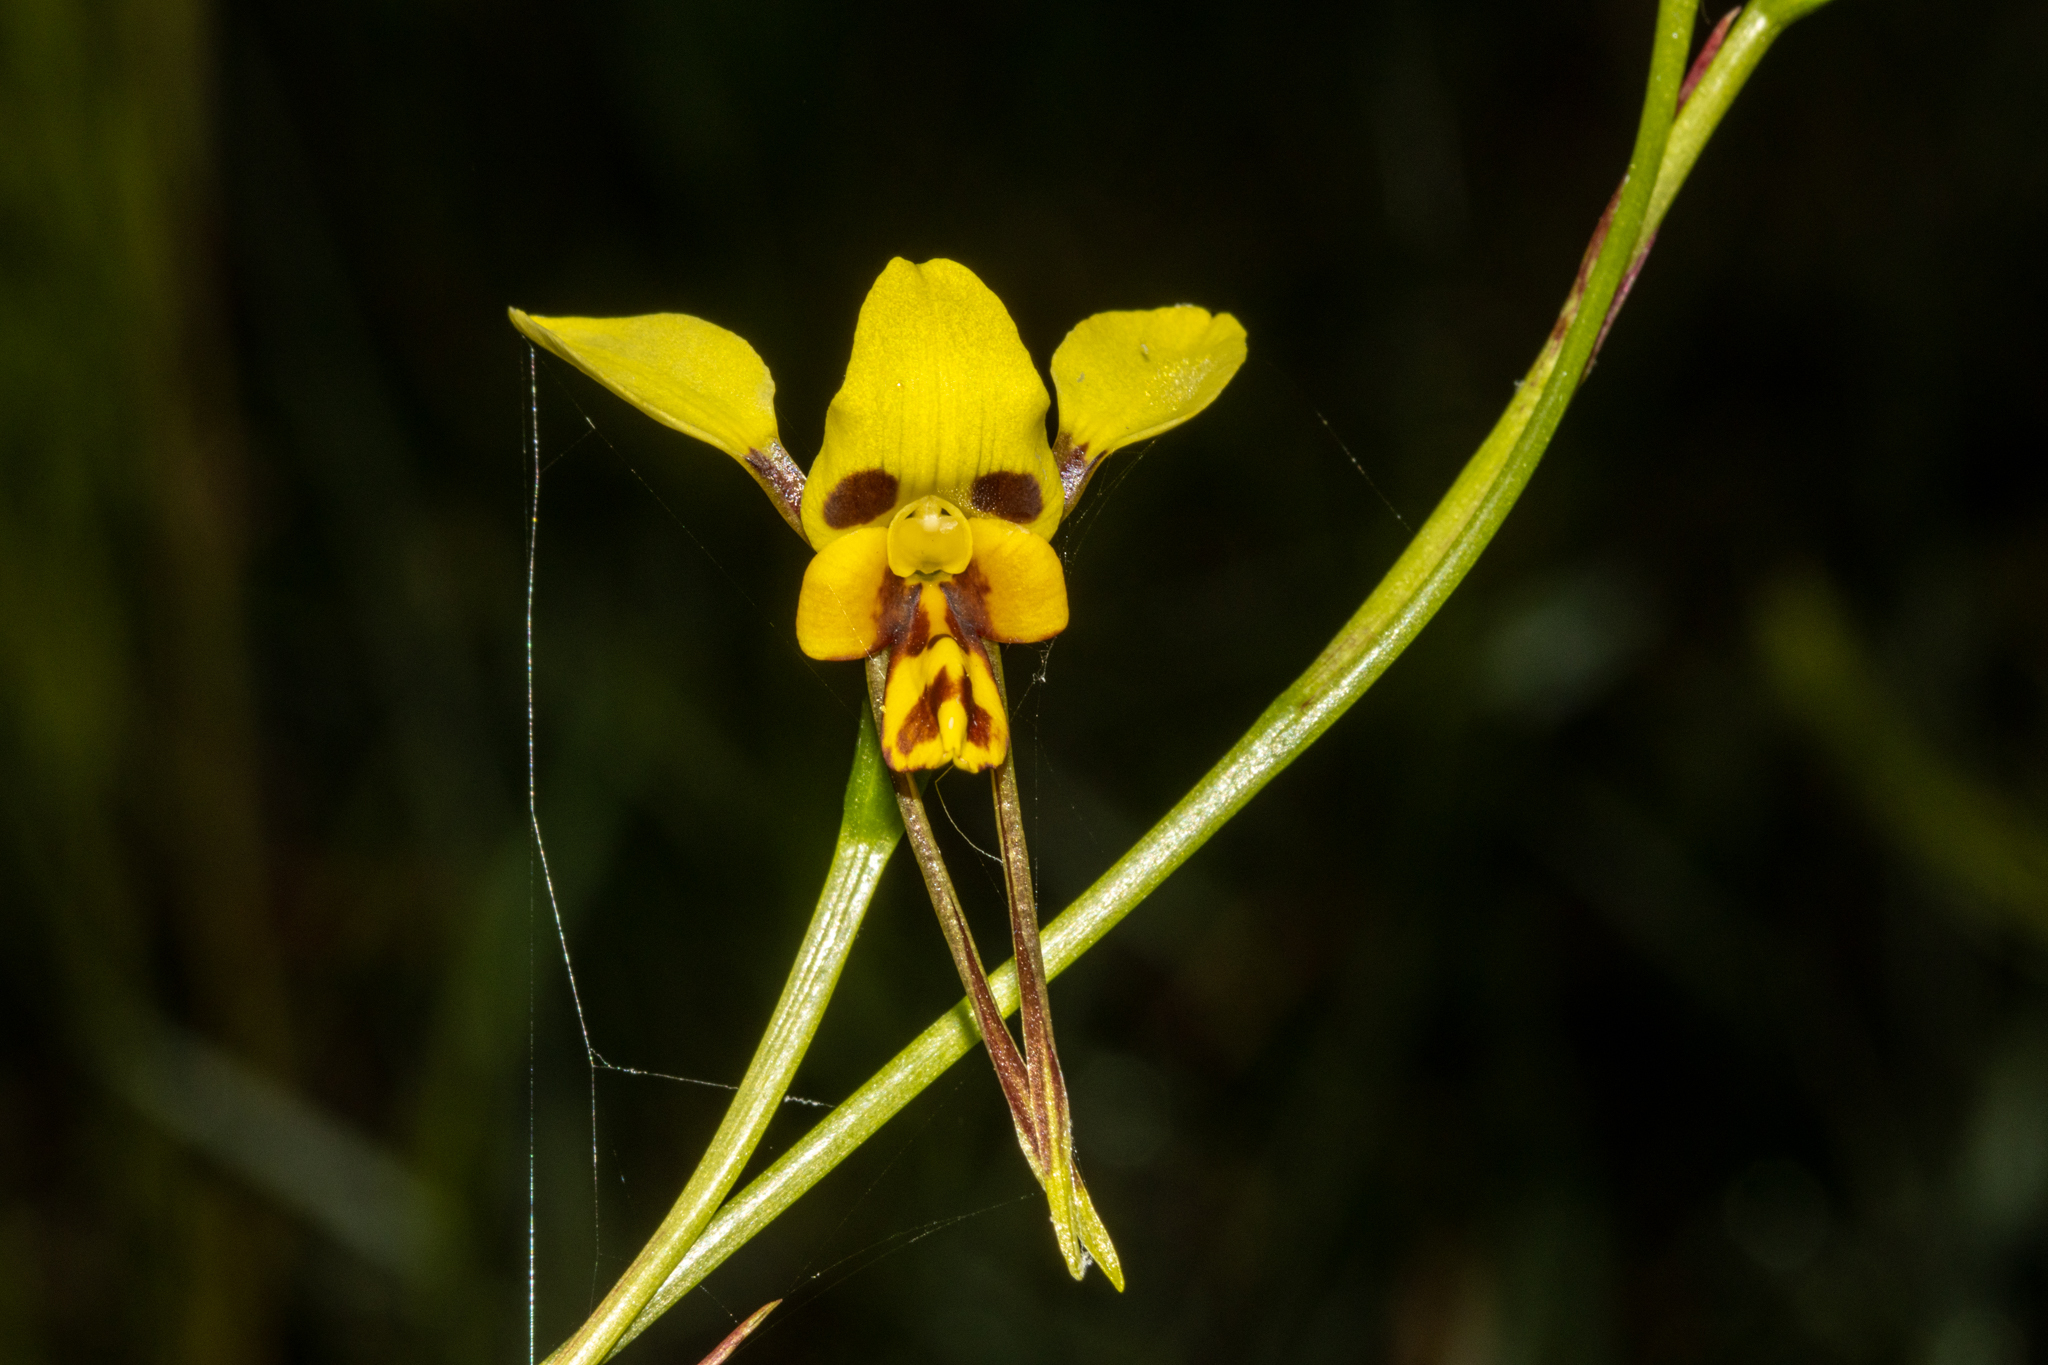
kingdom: Plantae
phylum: Tracheophyta
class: Liliopsida
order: Asparagales
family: Orchidaceae
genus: Diuris
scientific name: Diuris sulphurea
